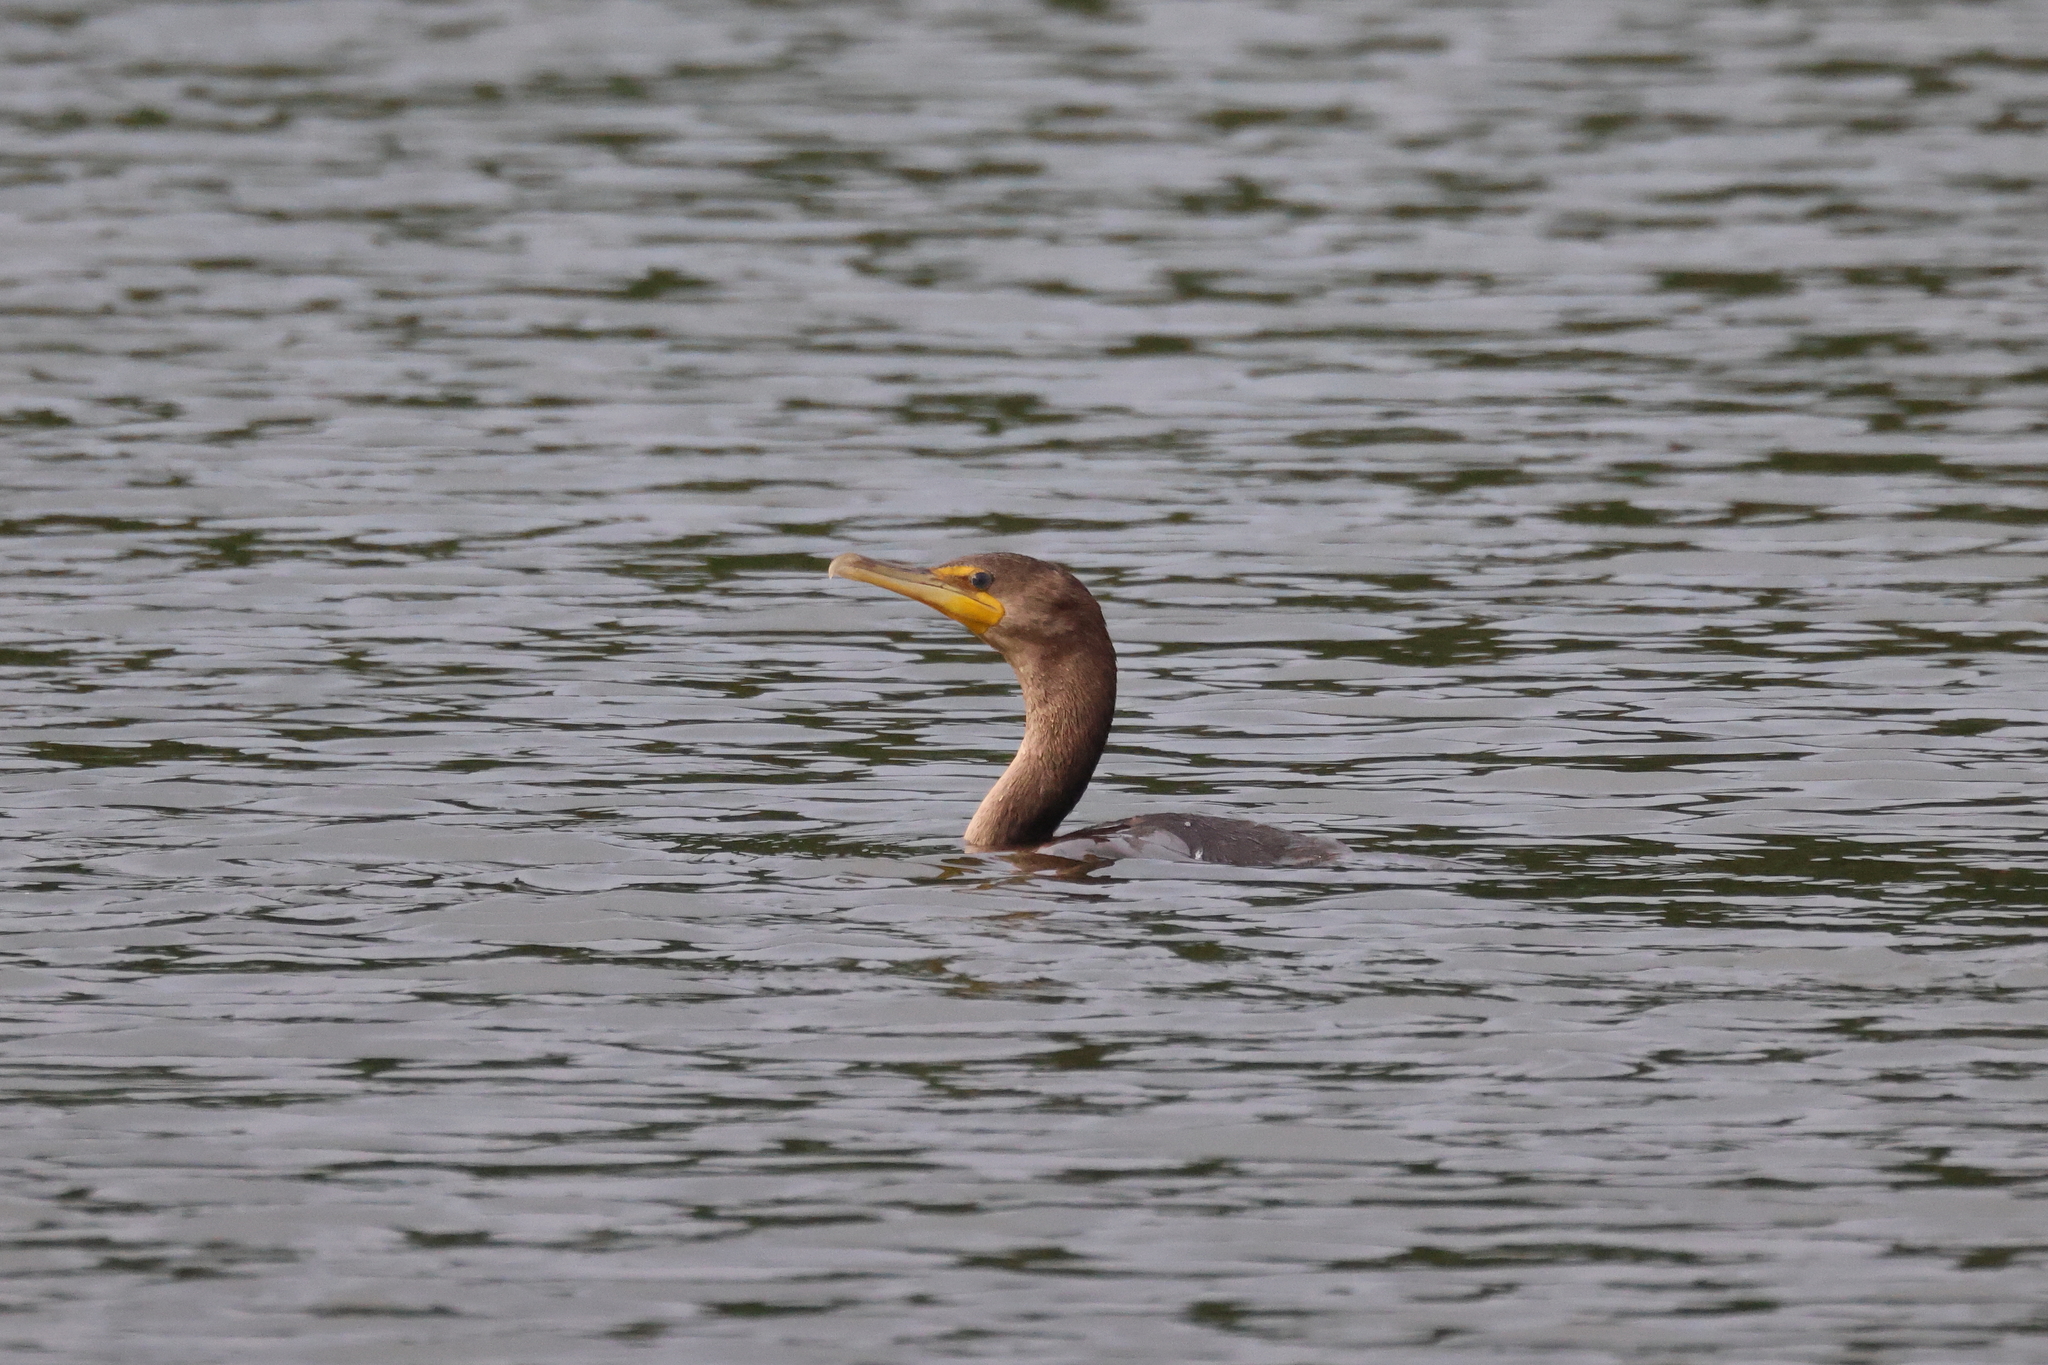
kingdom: Animalia
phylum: Chordata
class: Aves
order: Suliformes
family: Phalacrocoracidae
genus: Phalacrocorax
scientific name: Phalacrocorax auritus
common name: Double-crested cormorant
